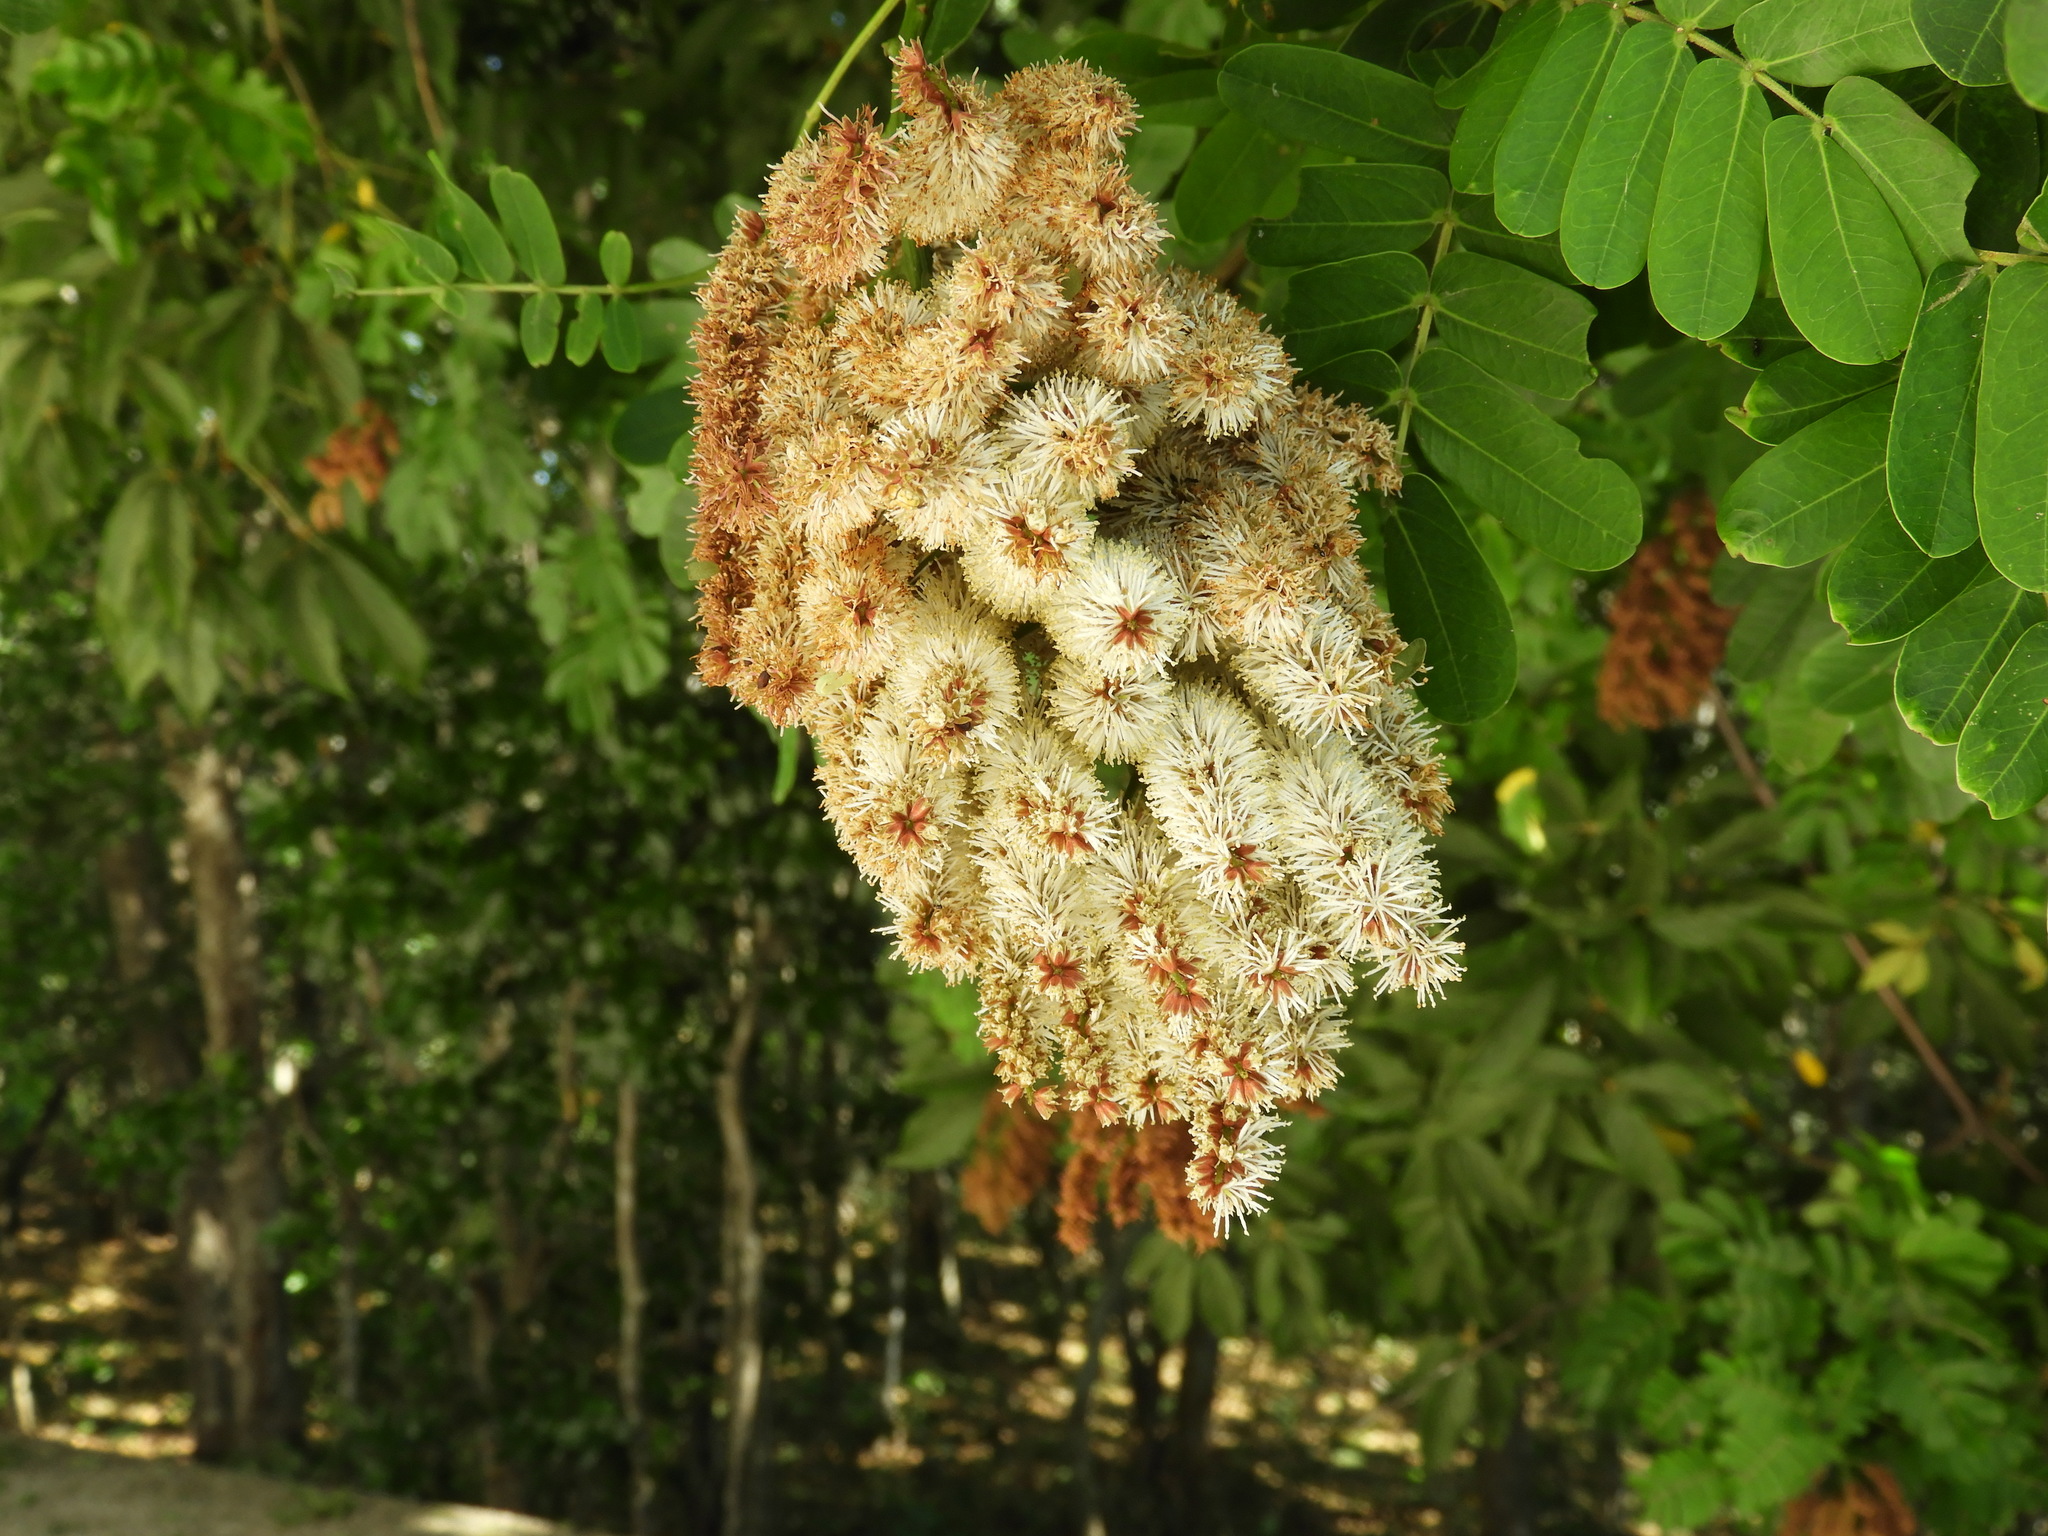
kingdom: Plantae
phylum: Tracheophyta
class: Magnoliopsida
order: Fabales
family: Fabaceae
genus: Entada
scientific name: Entada polystachya
